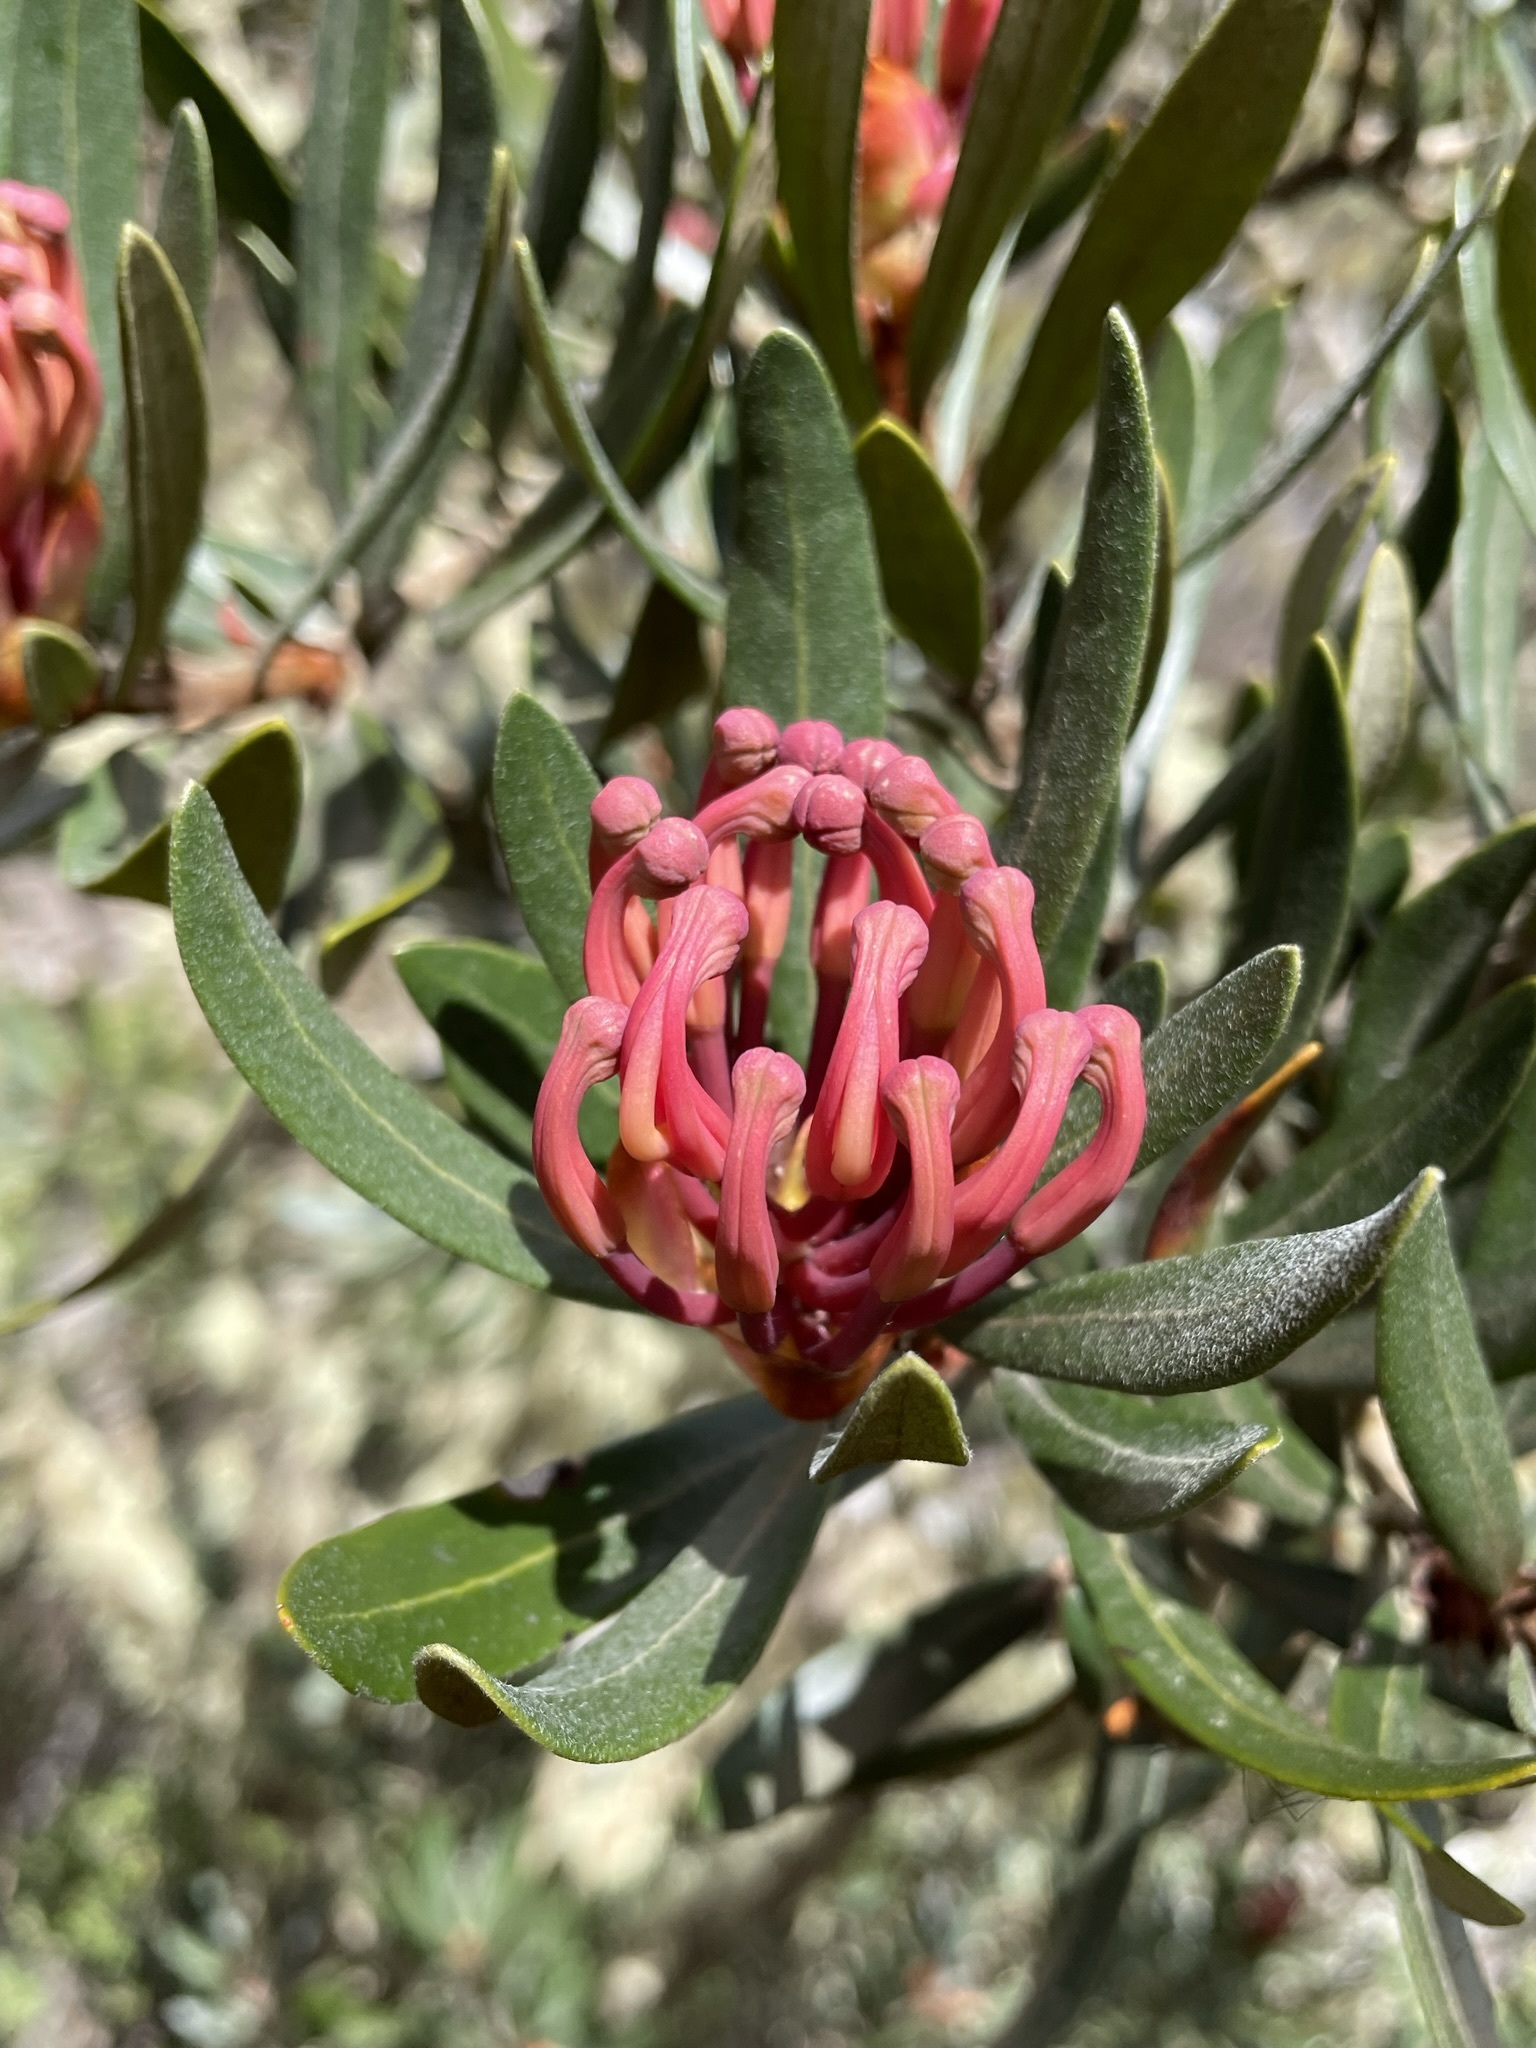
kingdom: Plantae
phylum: Tracheophyta
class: Magnoliopsida
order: Proteales
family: Proteaceae
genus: Telopea
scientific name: Telopea truncata
